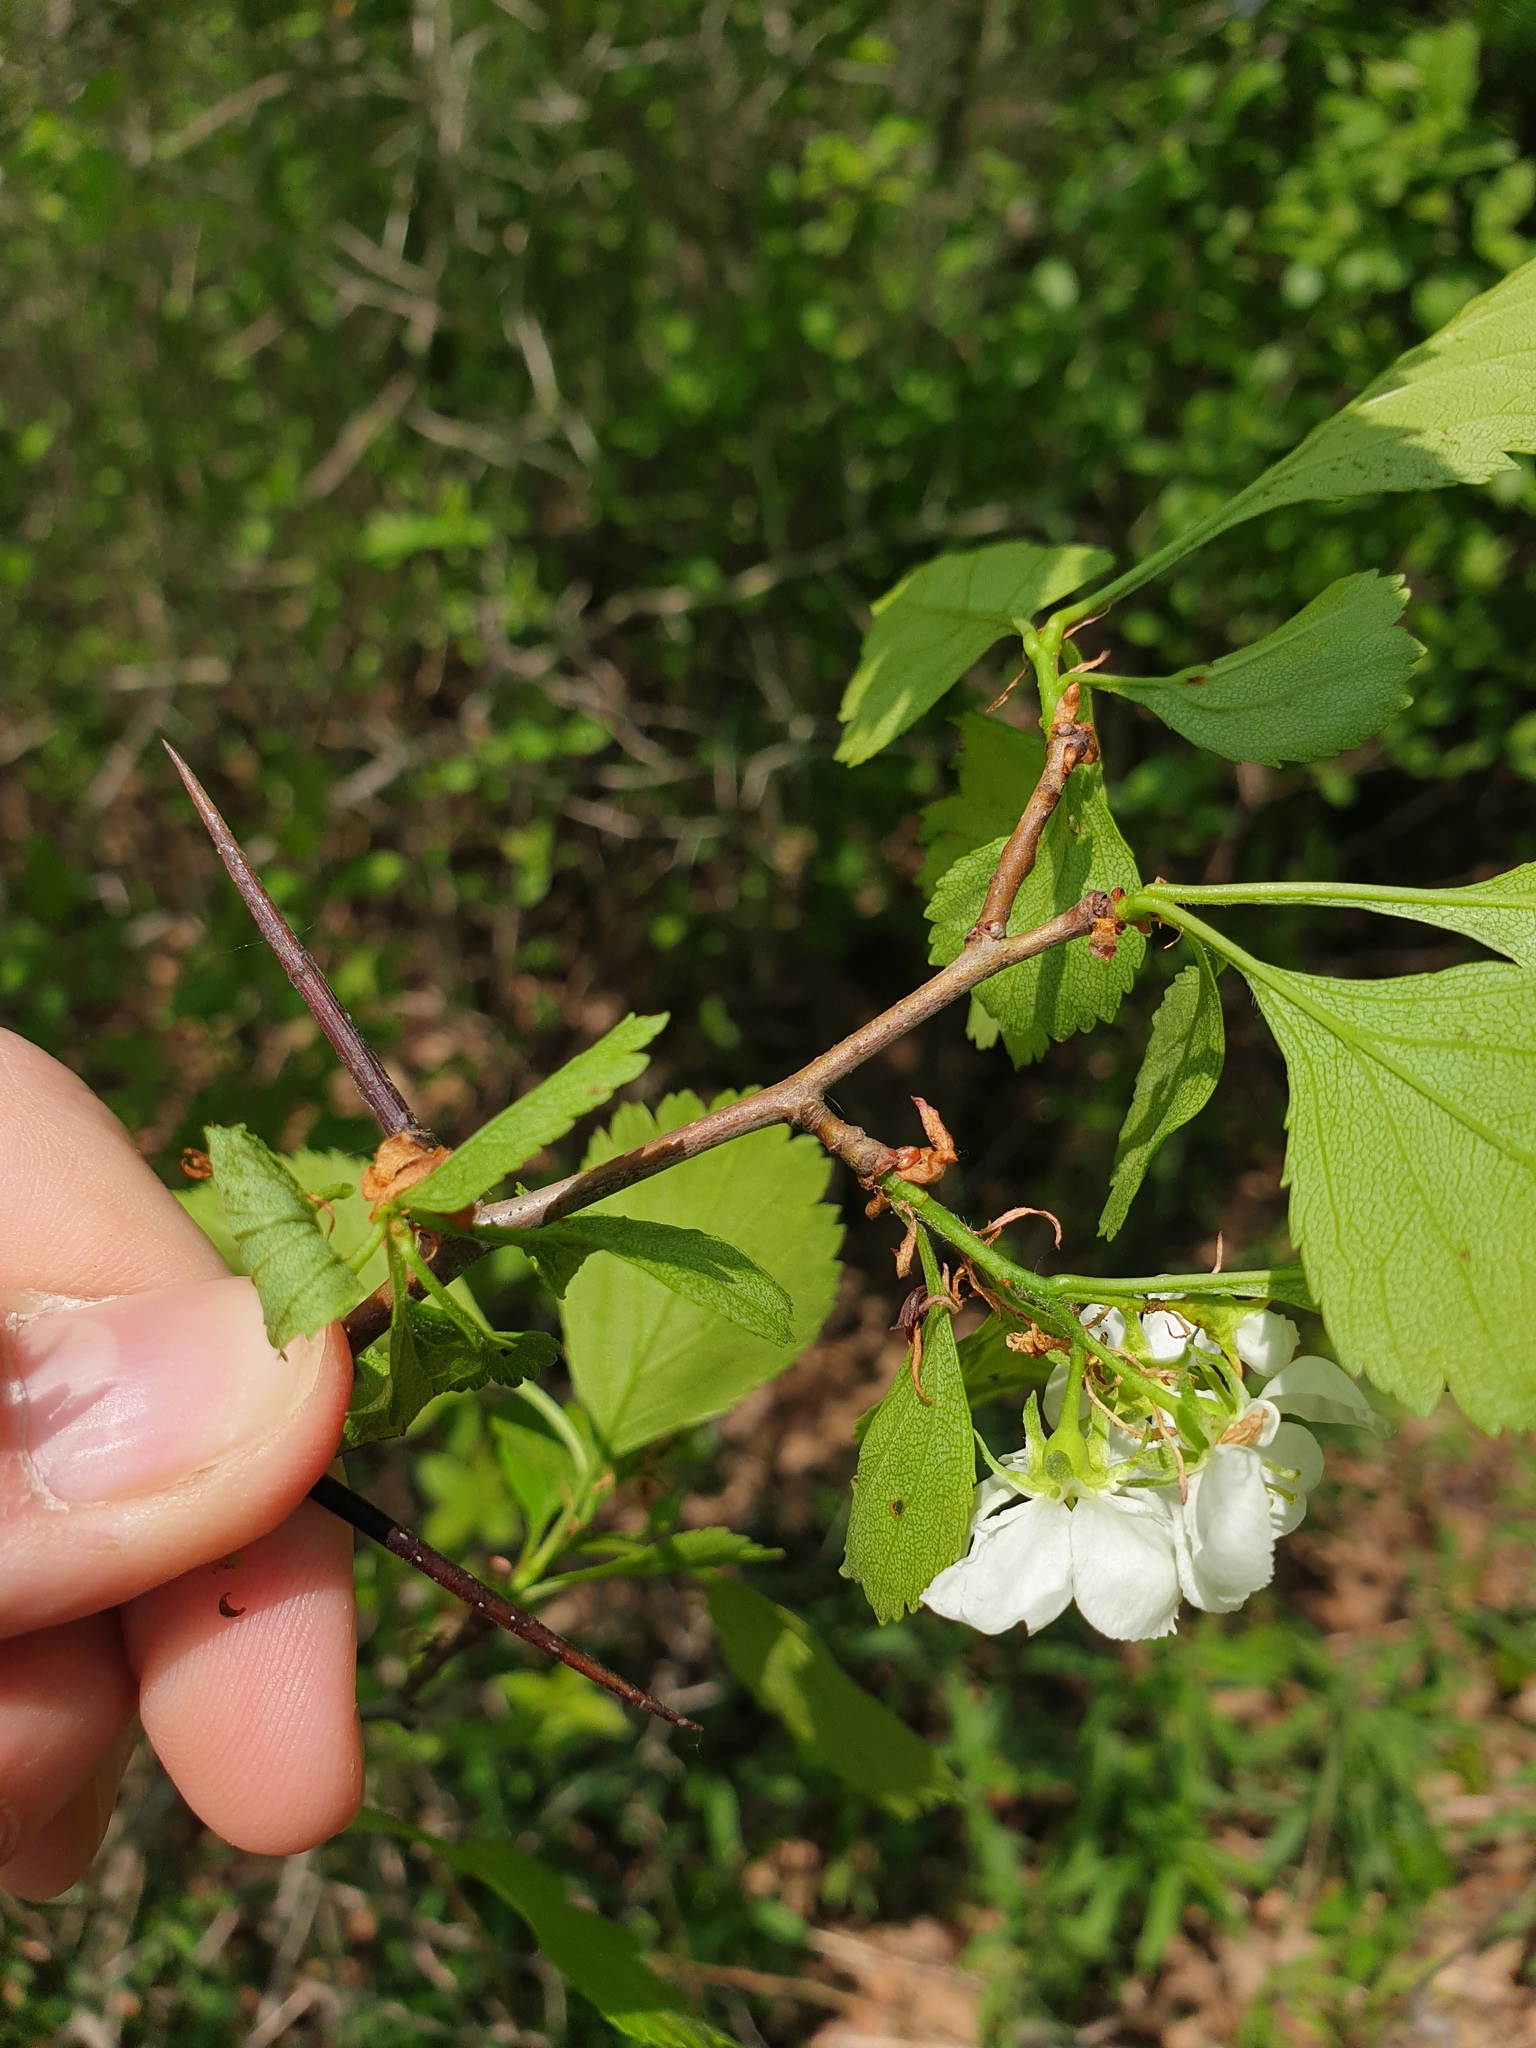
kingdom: Plantae
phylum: Tracheophyta
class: Magnoliopsida
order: Rosales
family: Rosaceae
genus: Crataegus
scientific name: Crataegus dodgei
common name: Dodge's hawthorn
